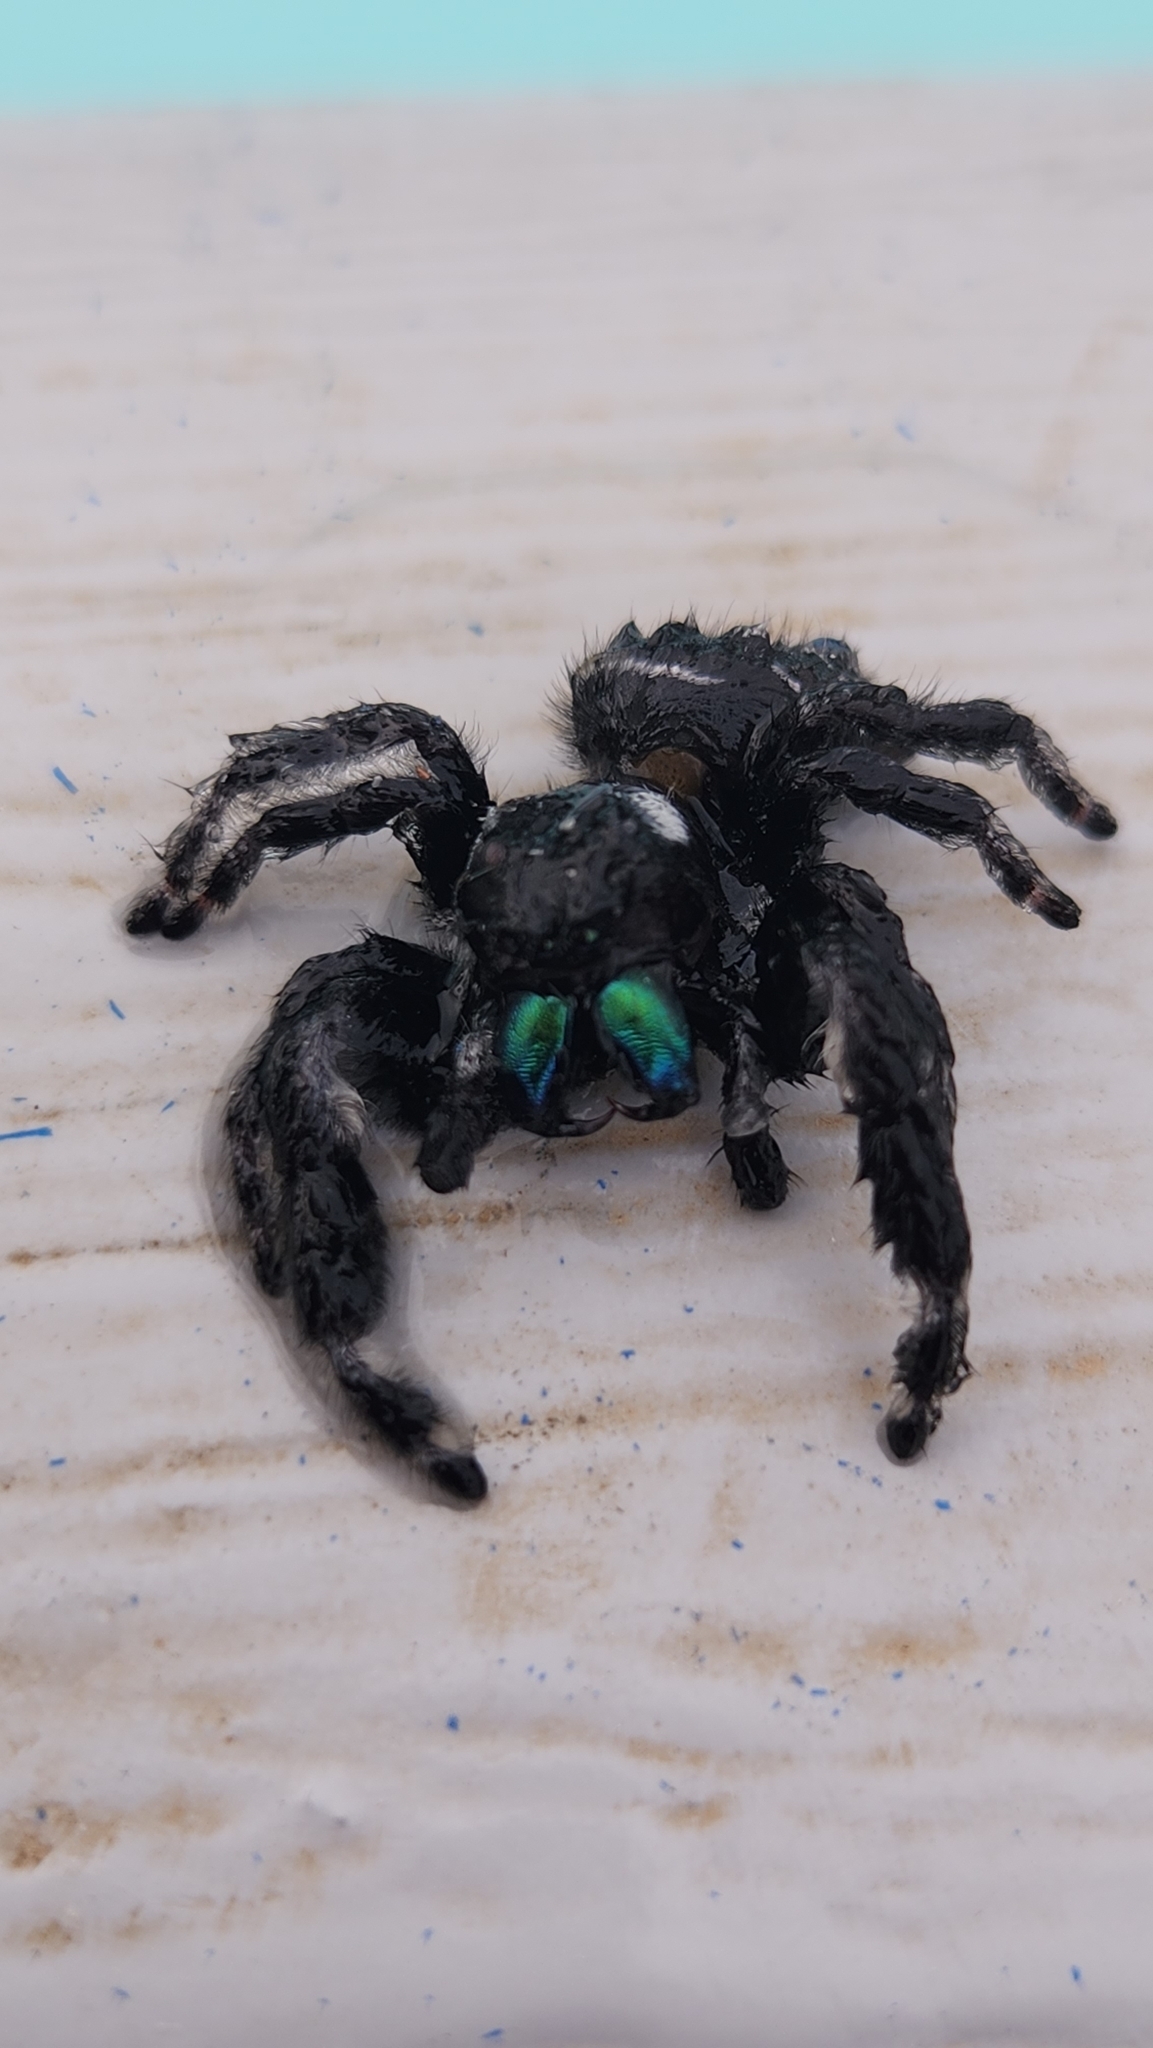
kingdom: Animalia
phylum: Arthropoda
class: Arachnida
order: Araneae
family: Salticidae
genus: Phidippus
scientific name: Phidippus audax
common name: Bold jumper
